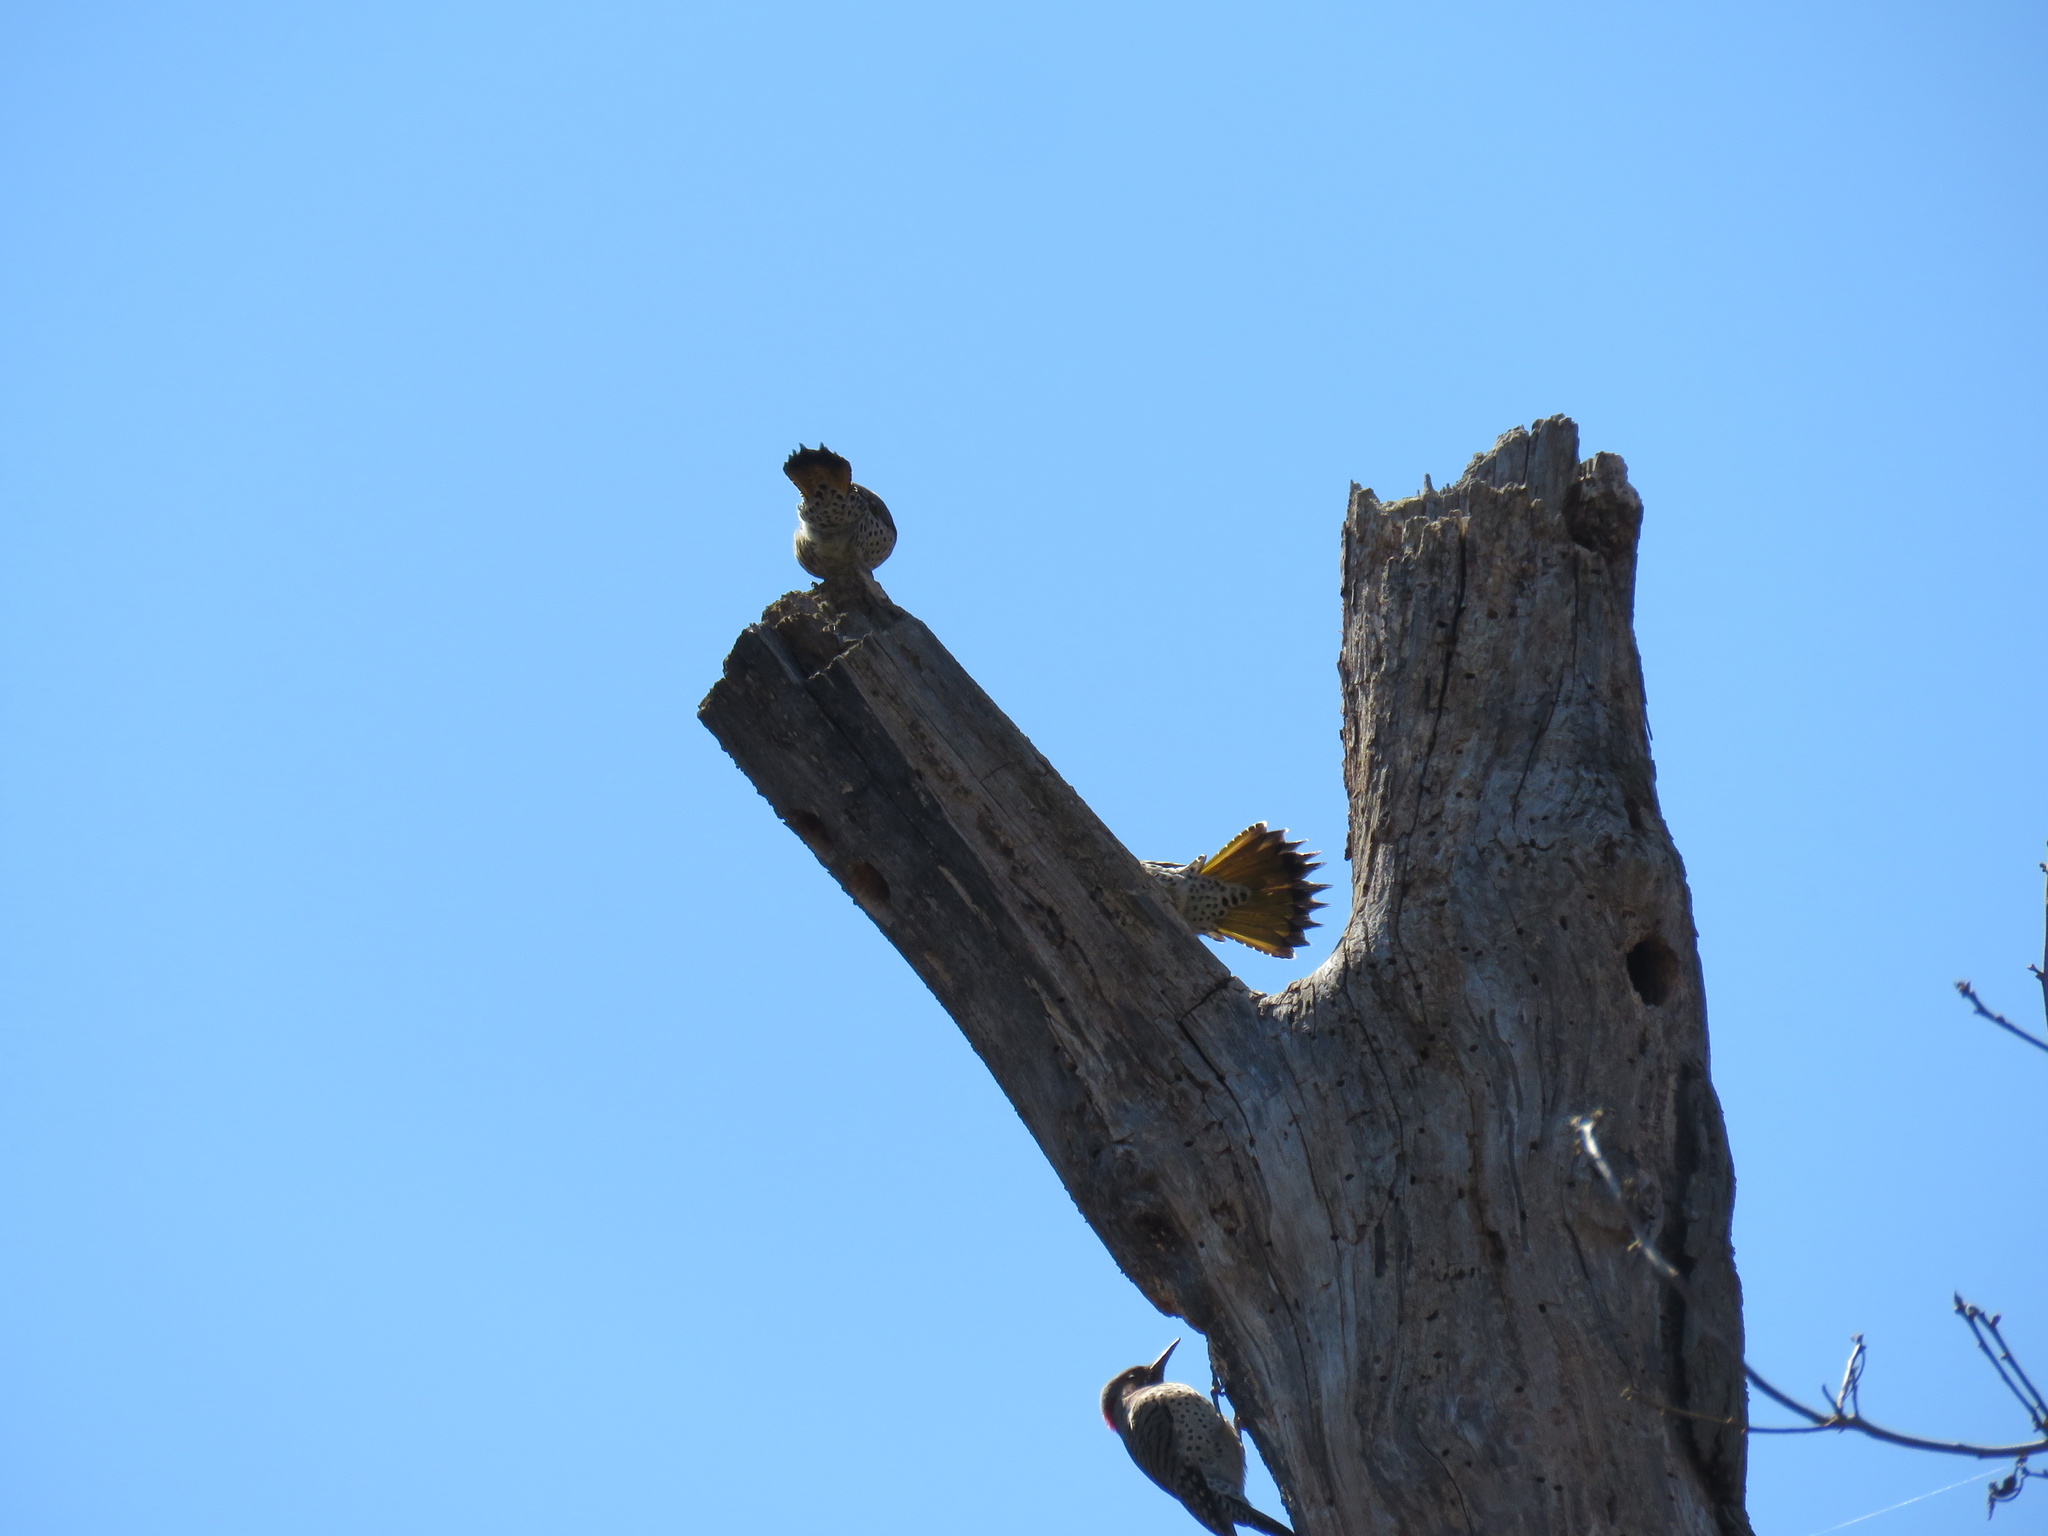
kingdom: Animalia
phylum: Chordata
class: Aves
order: Piciformes
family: Picidae
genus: Colaptes
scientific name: Colaptes auratus
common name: Northern flicker
